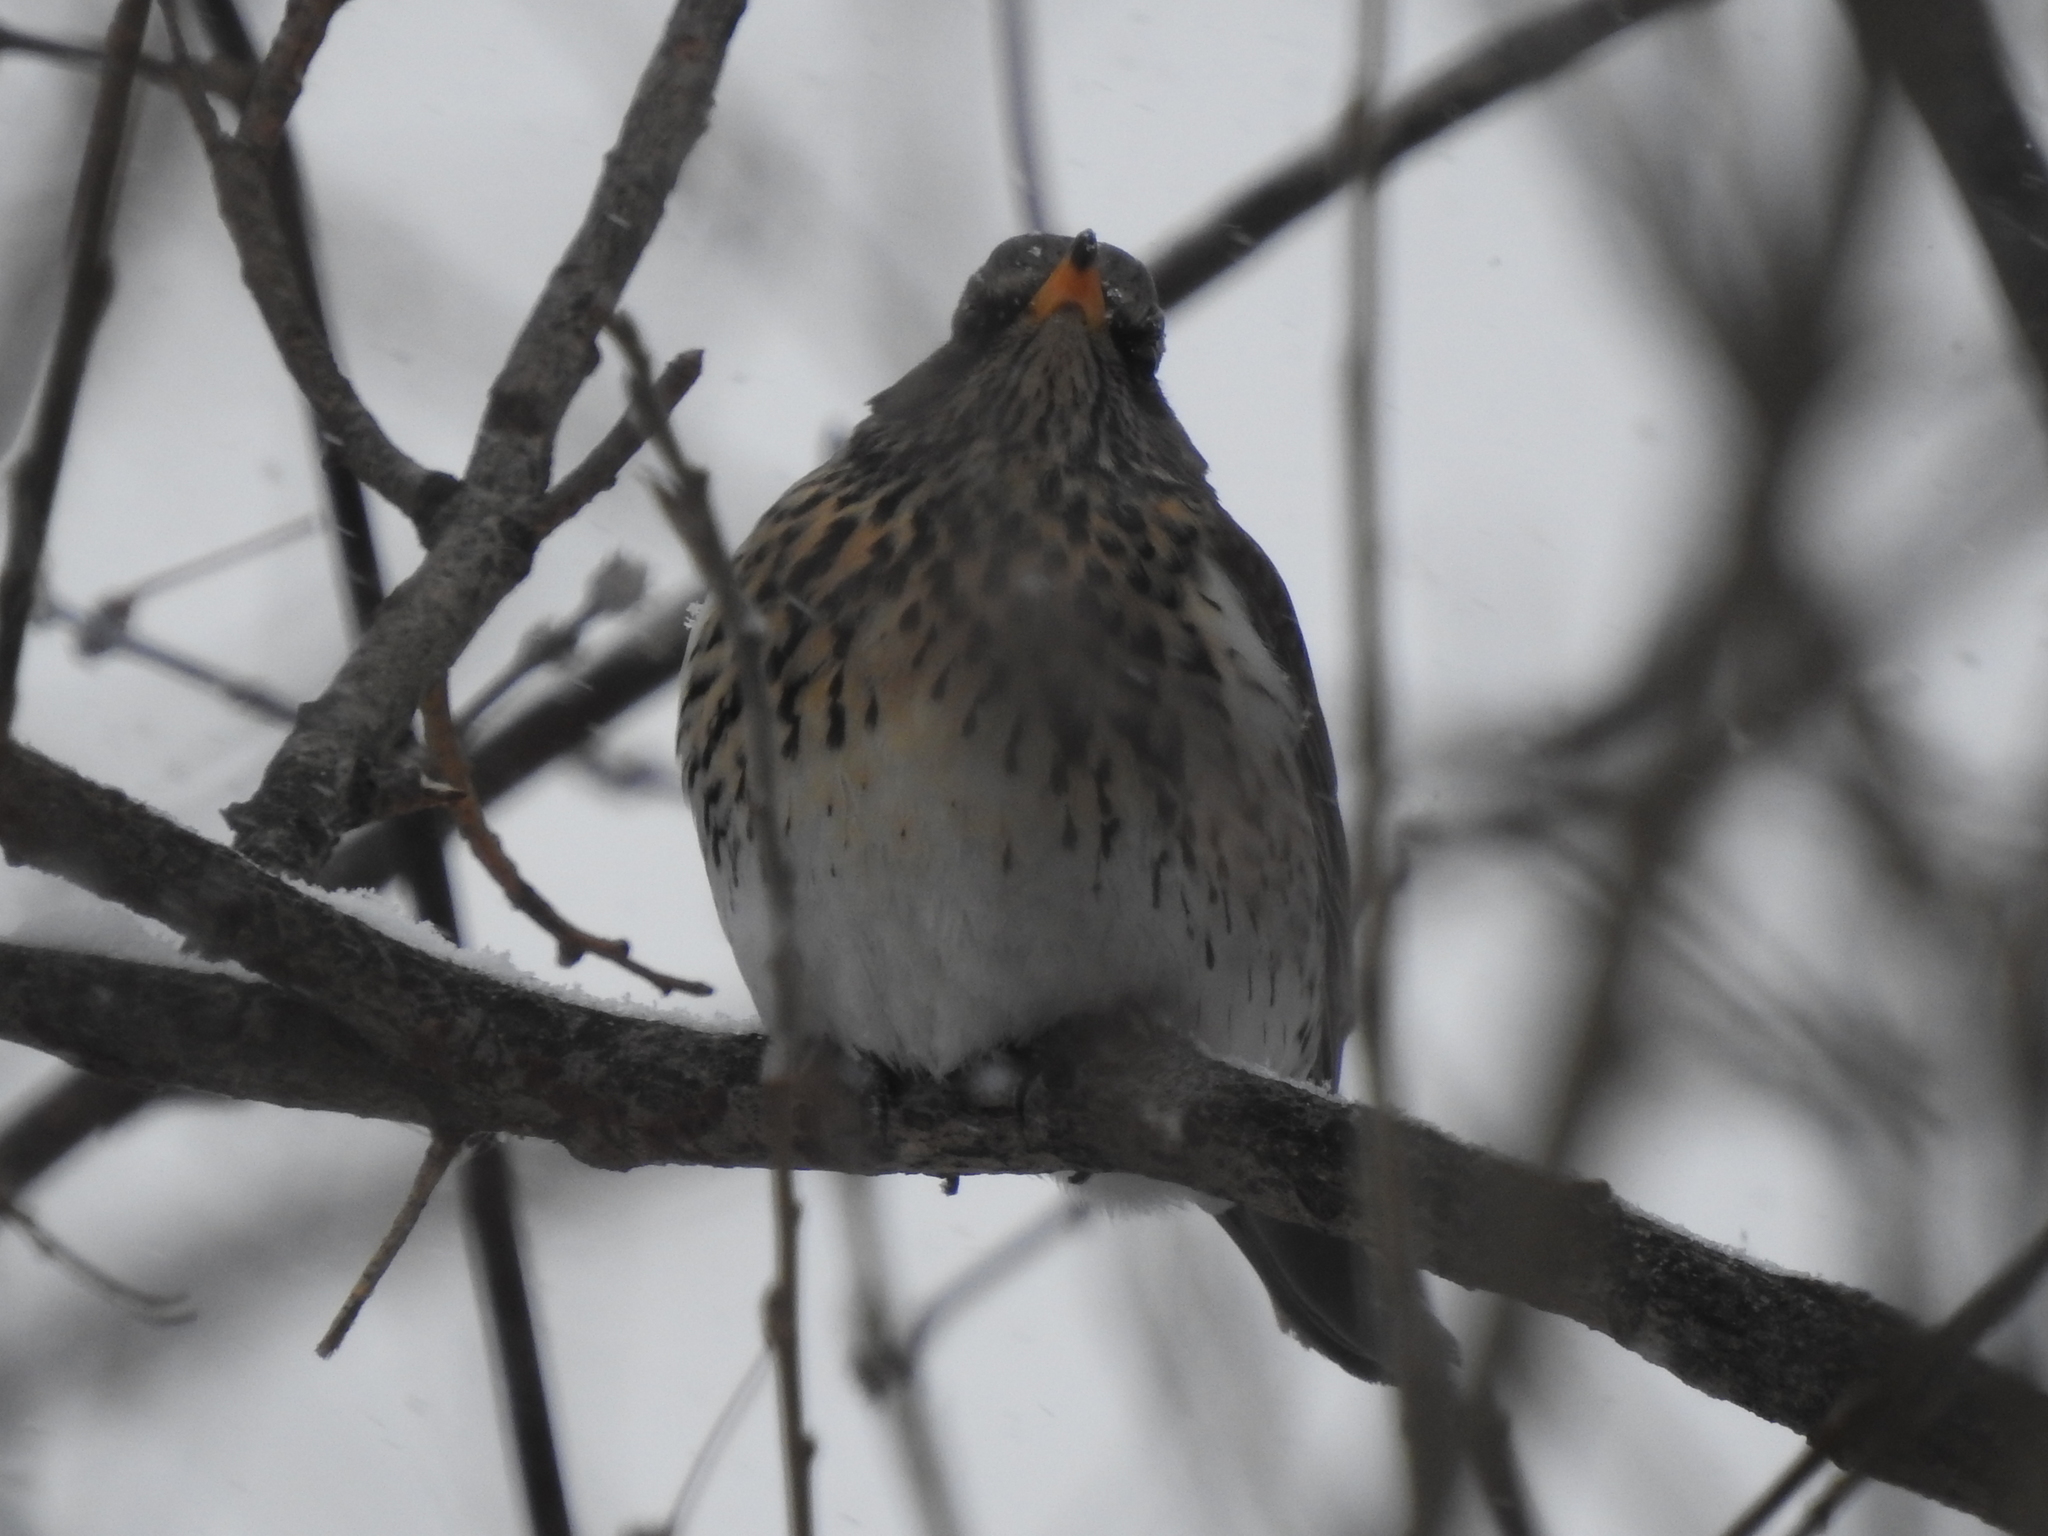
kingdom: Animalia
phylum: Chordata
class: Aves
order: Passeriformes
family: Turdidae
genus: Turdus
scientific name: Turdus pilaris
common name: Fieldfare
